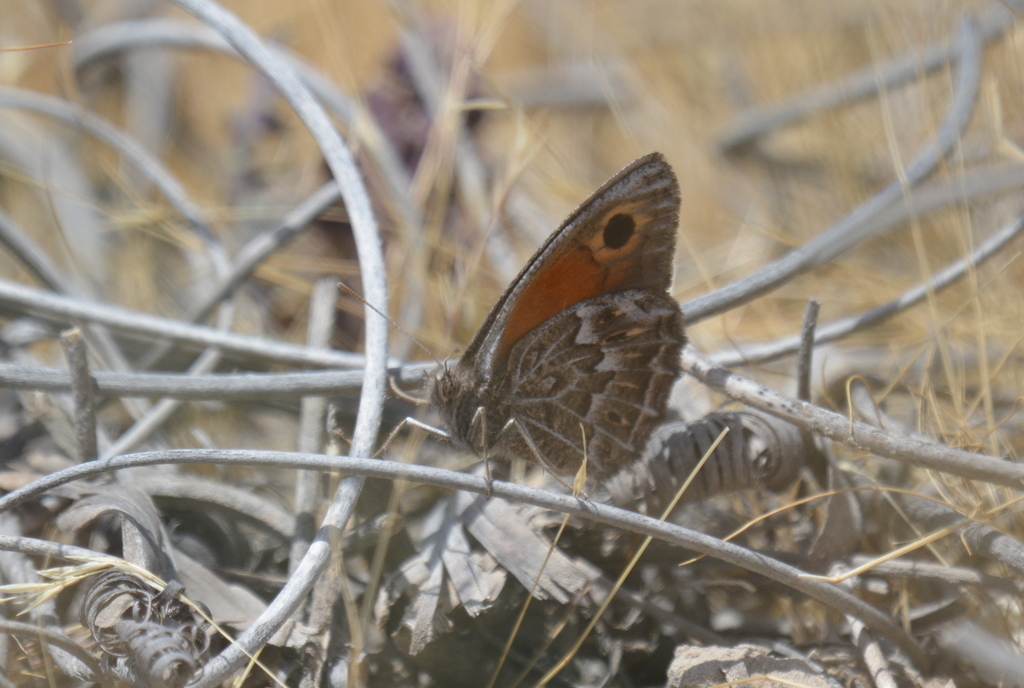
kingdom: Animalia
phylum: Arthropoda
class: Insecta
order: Lepidoptera
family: Nymphalidae
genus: Argyrophorus
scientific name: Argyrophorus
